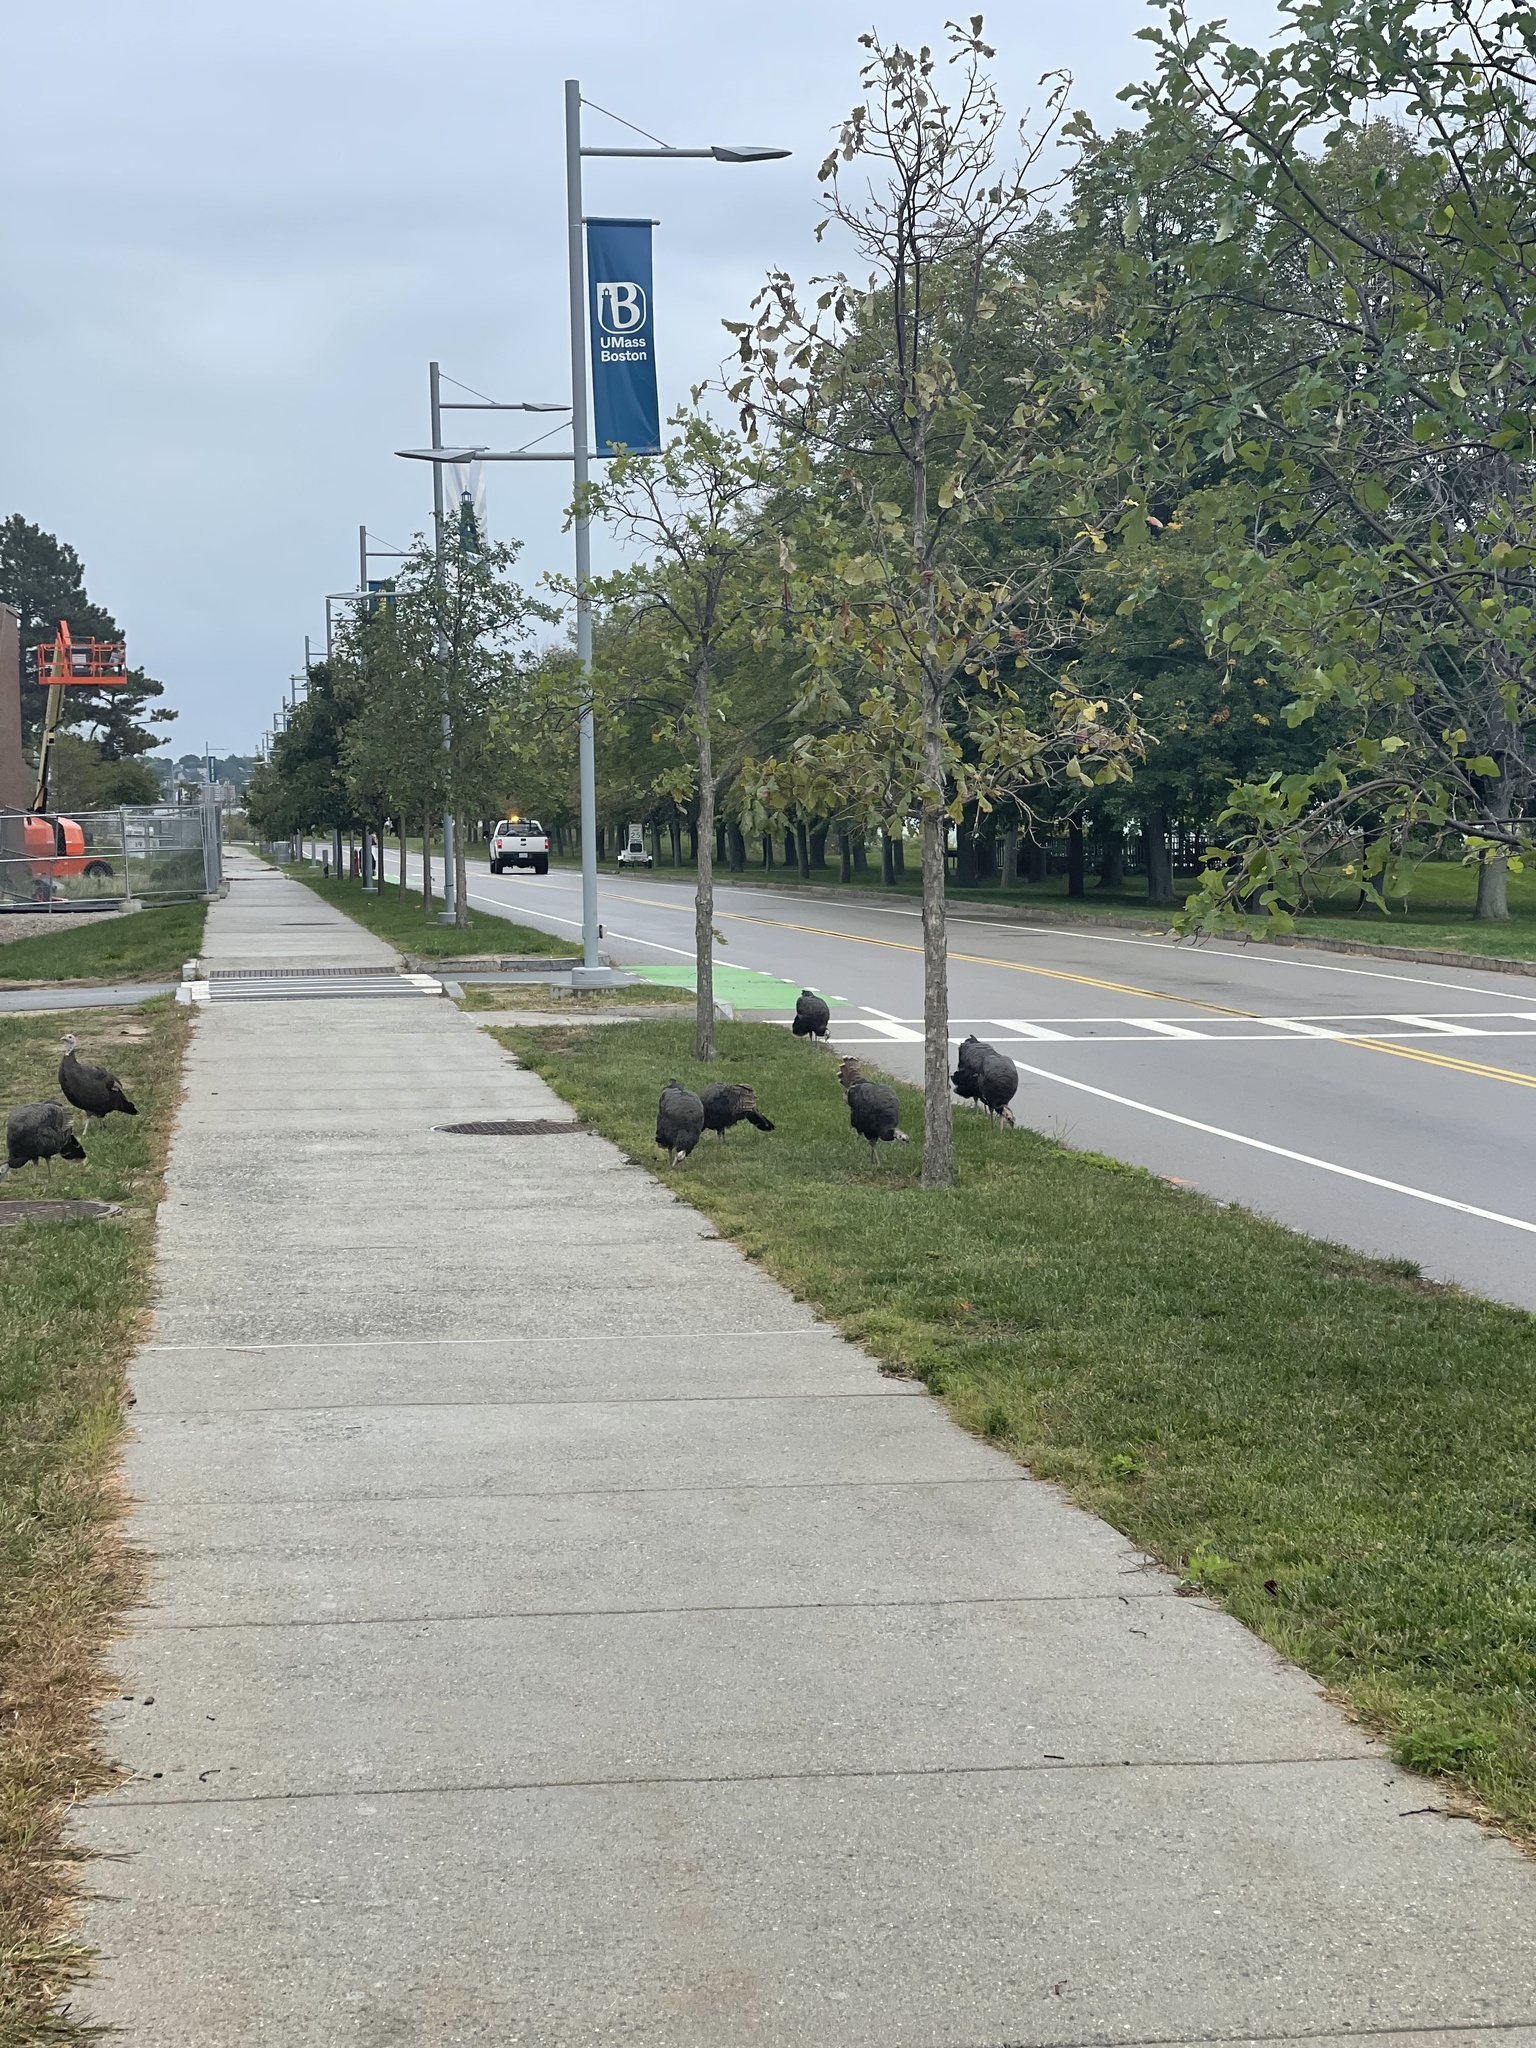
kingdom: Animalia
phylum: Chordata
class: Aves
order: Galliformes
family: Phasianidae
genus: Meleagris
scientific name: Meleagris gallopavo
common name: Wild turkey
